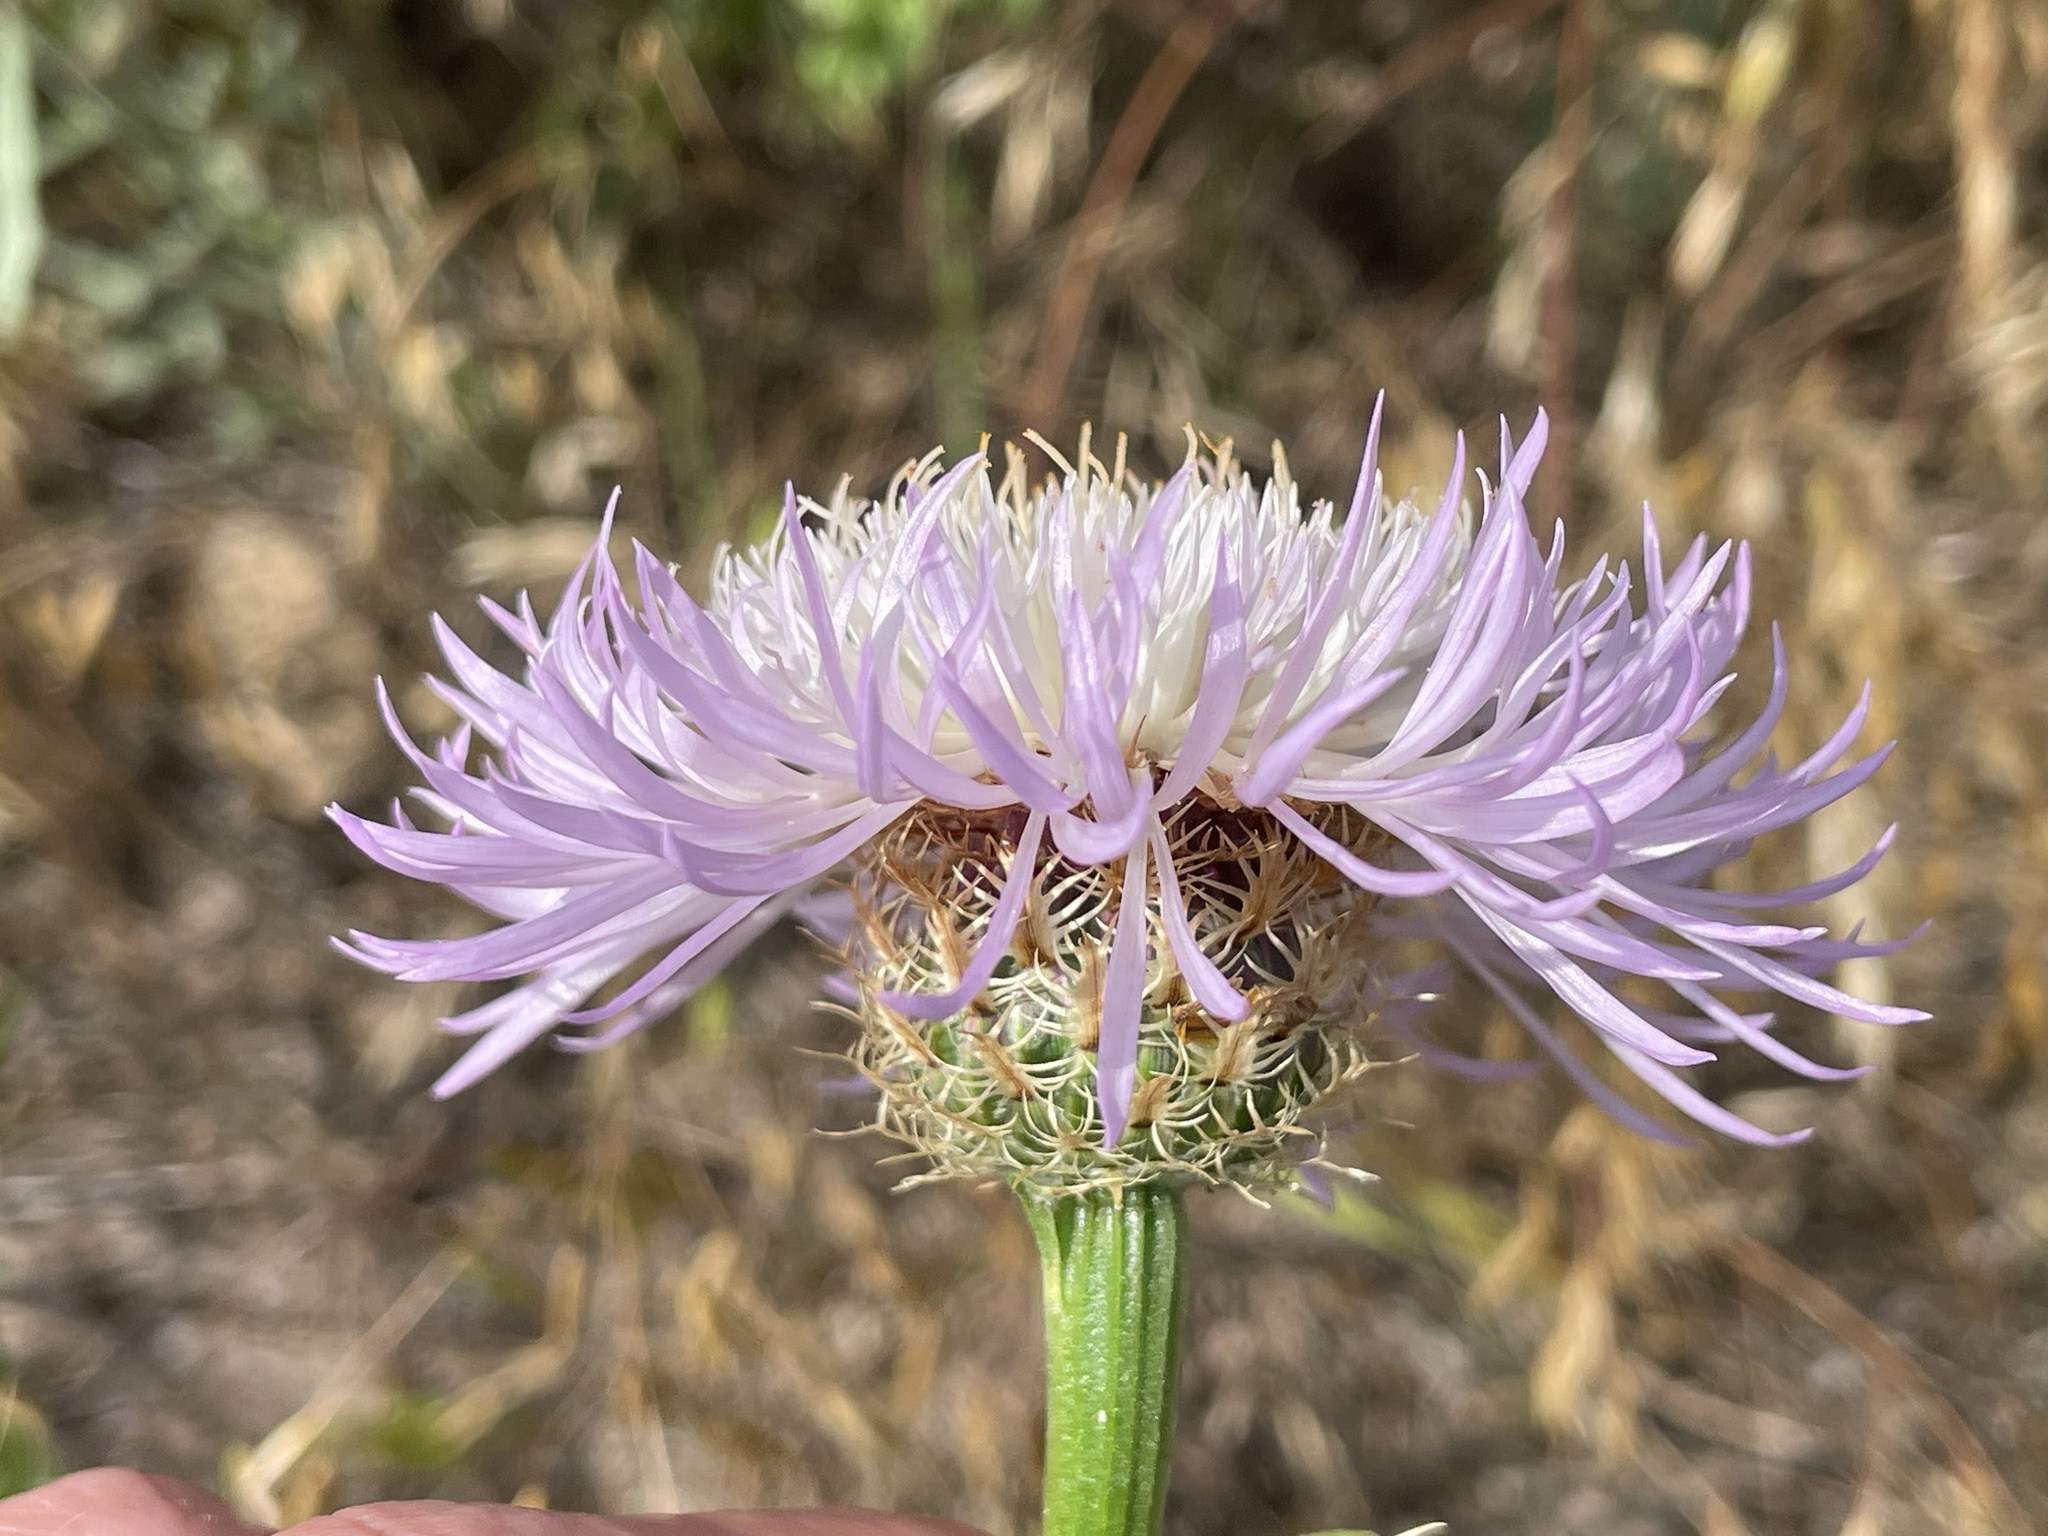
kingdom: Plantae
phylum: Tracheophyta
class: Magnoliopsida
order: Asterales
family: Asteraceae
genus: Plectocephalus
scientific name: Plectocephalus americanus
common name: American basket-flower
